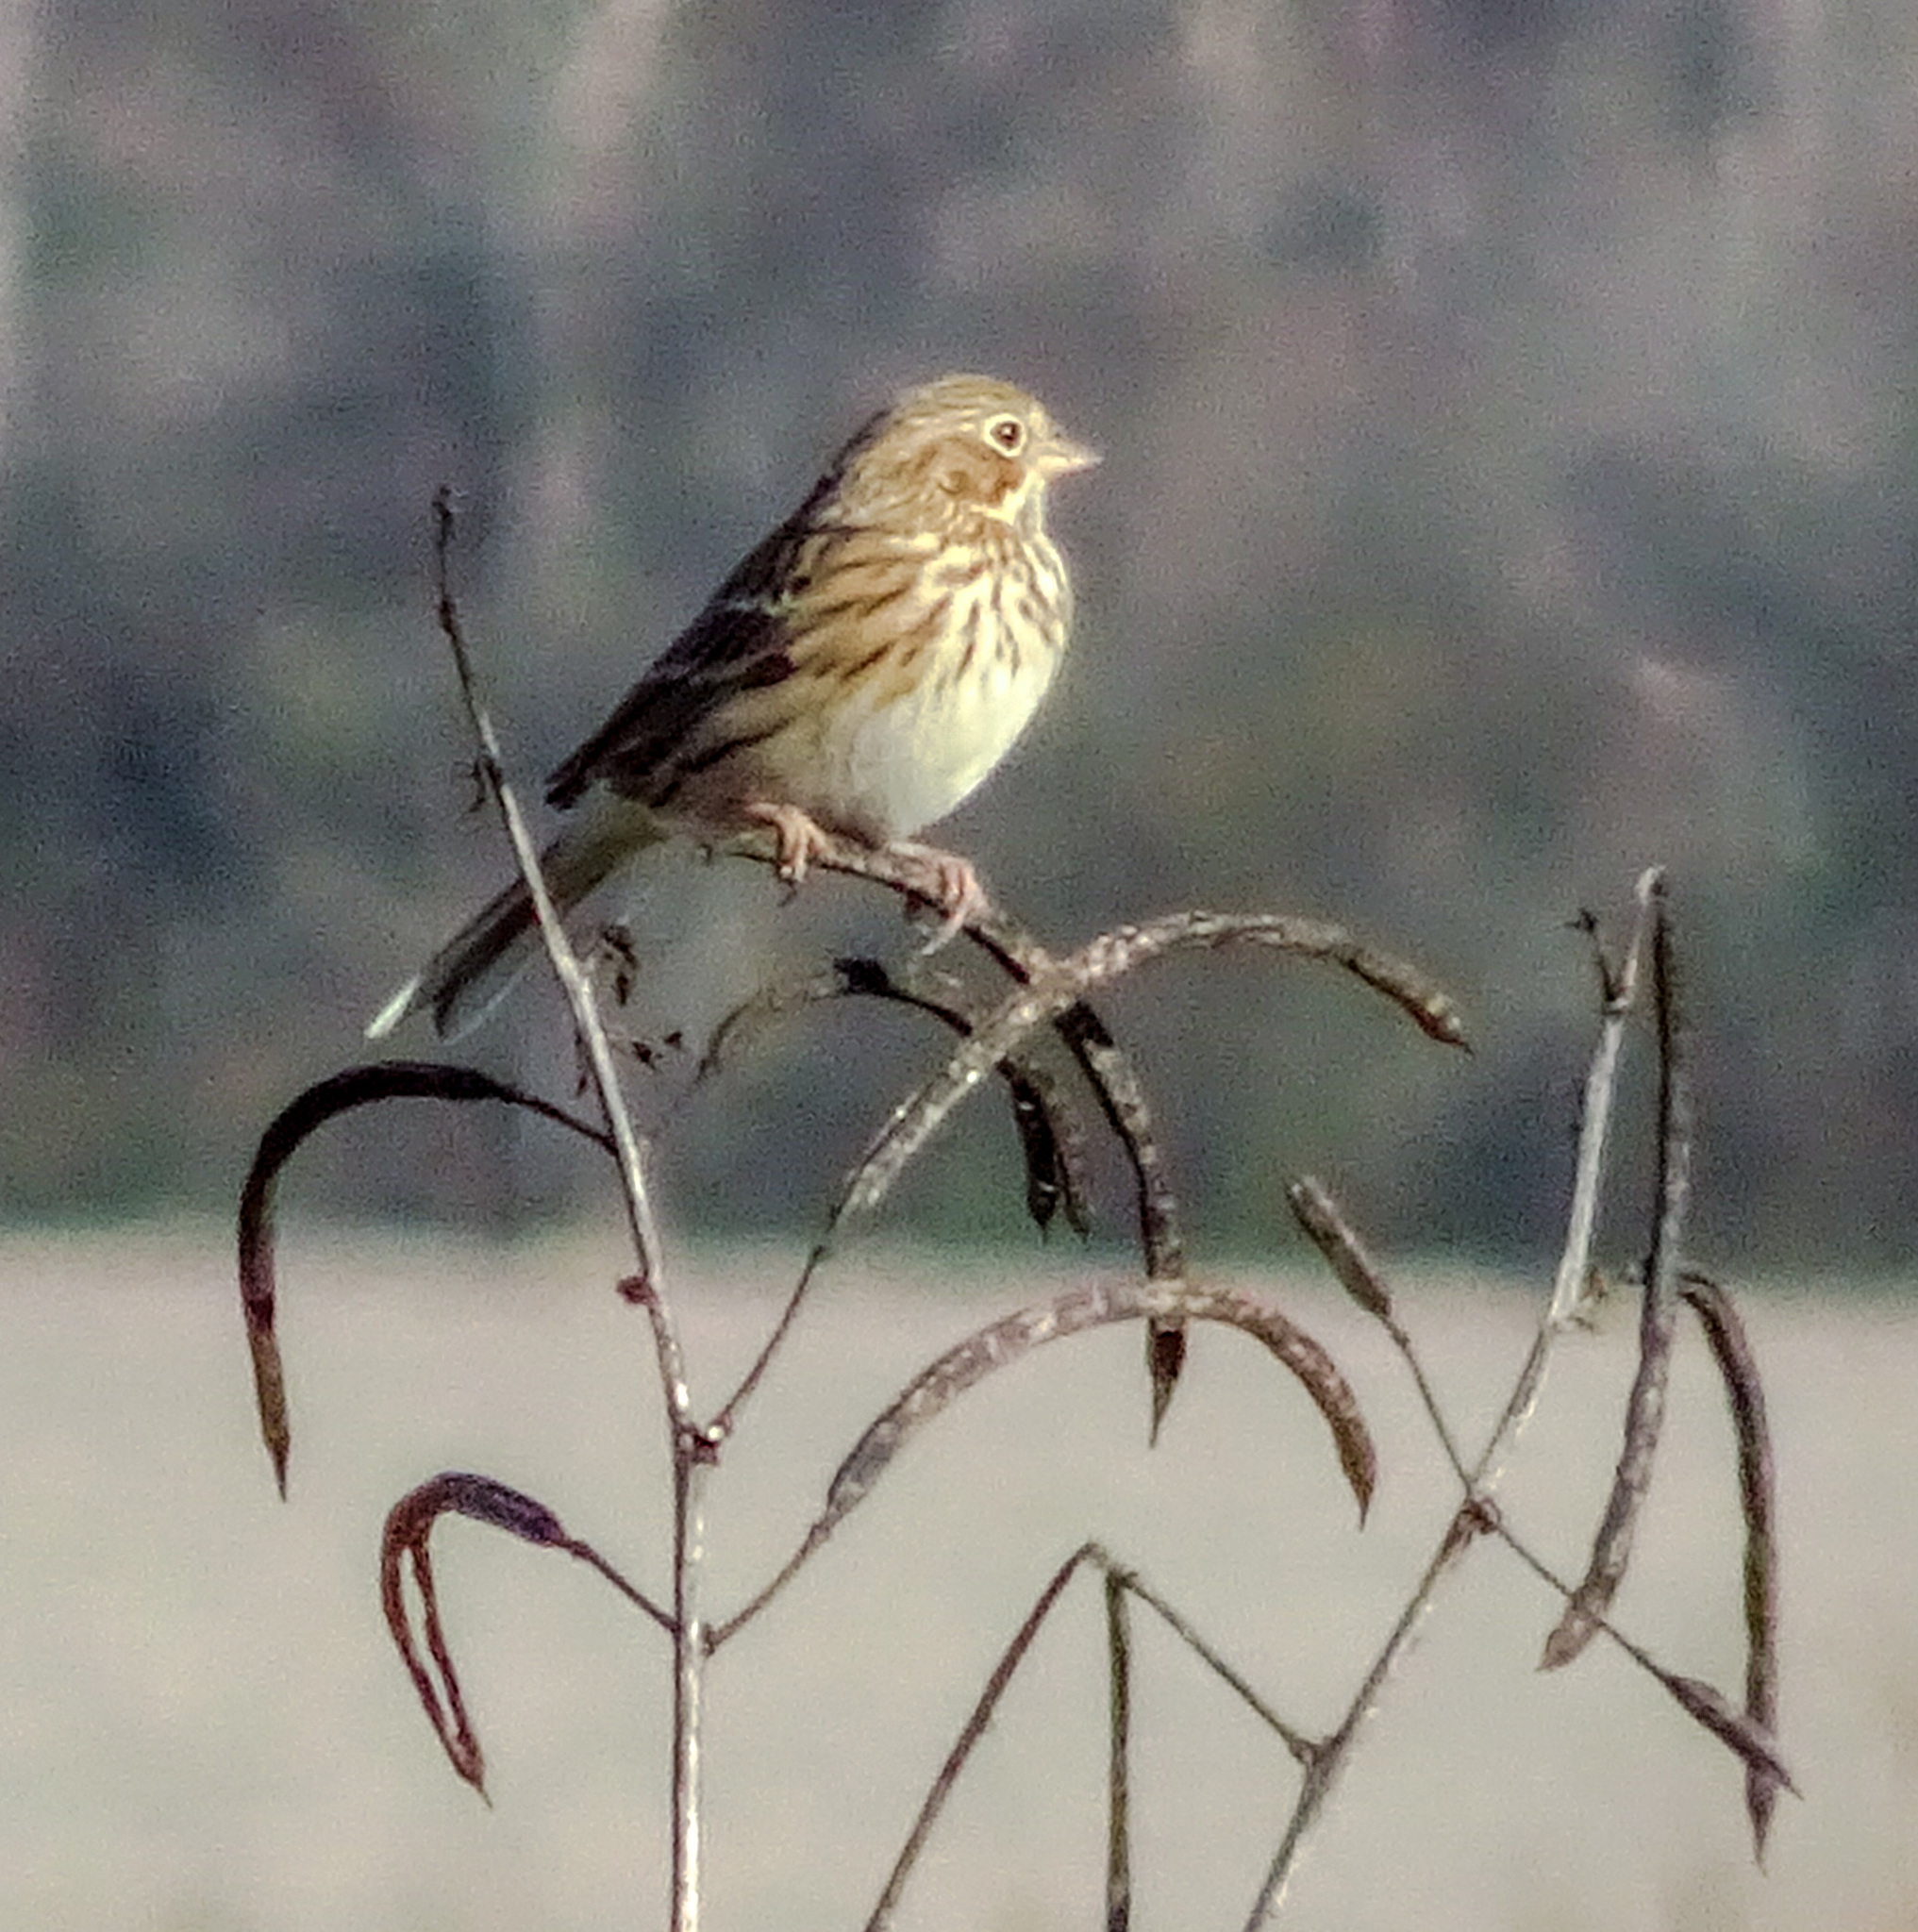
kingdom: Animalia
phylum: Chordata
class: Aves
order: Passeriformes
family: Passerellidae
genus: Pooecetes
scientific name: Pooecetes gramineus
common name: Vesper sparrow
